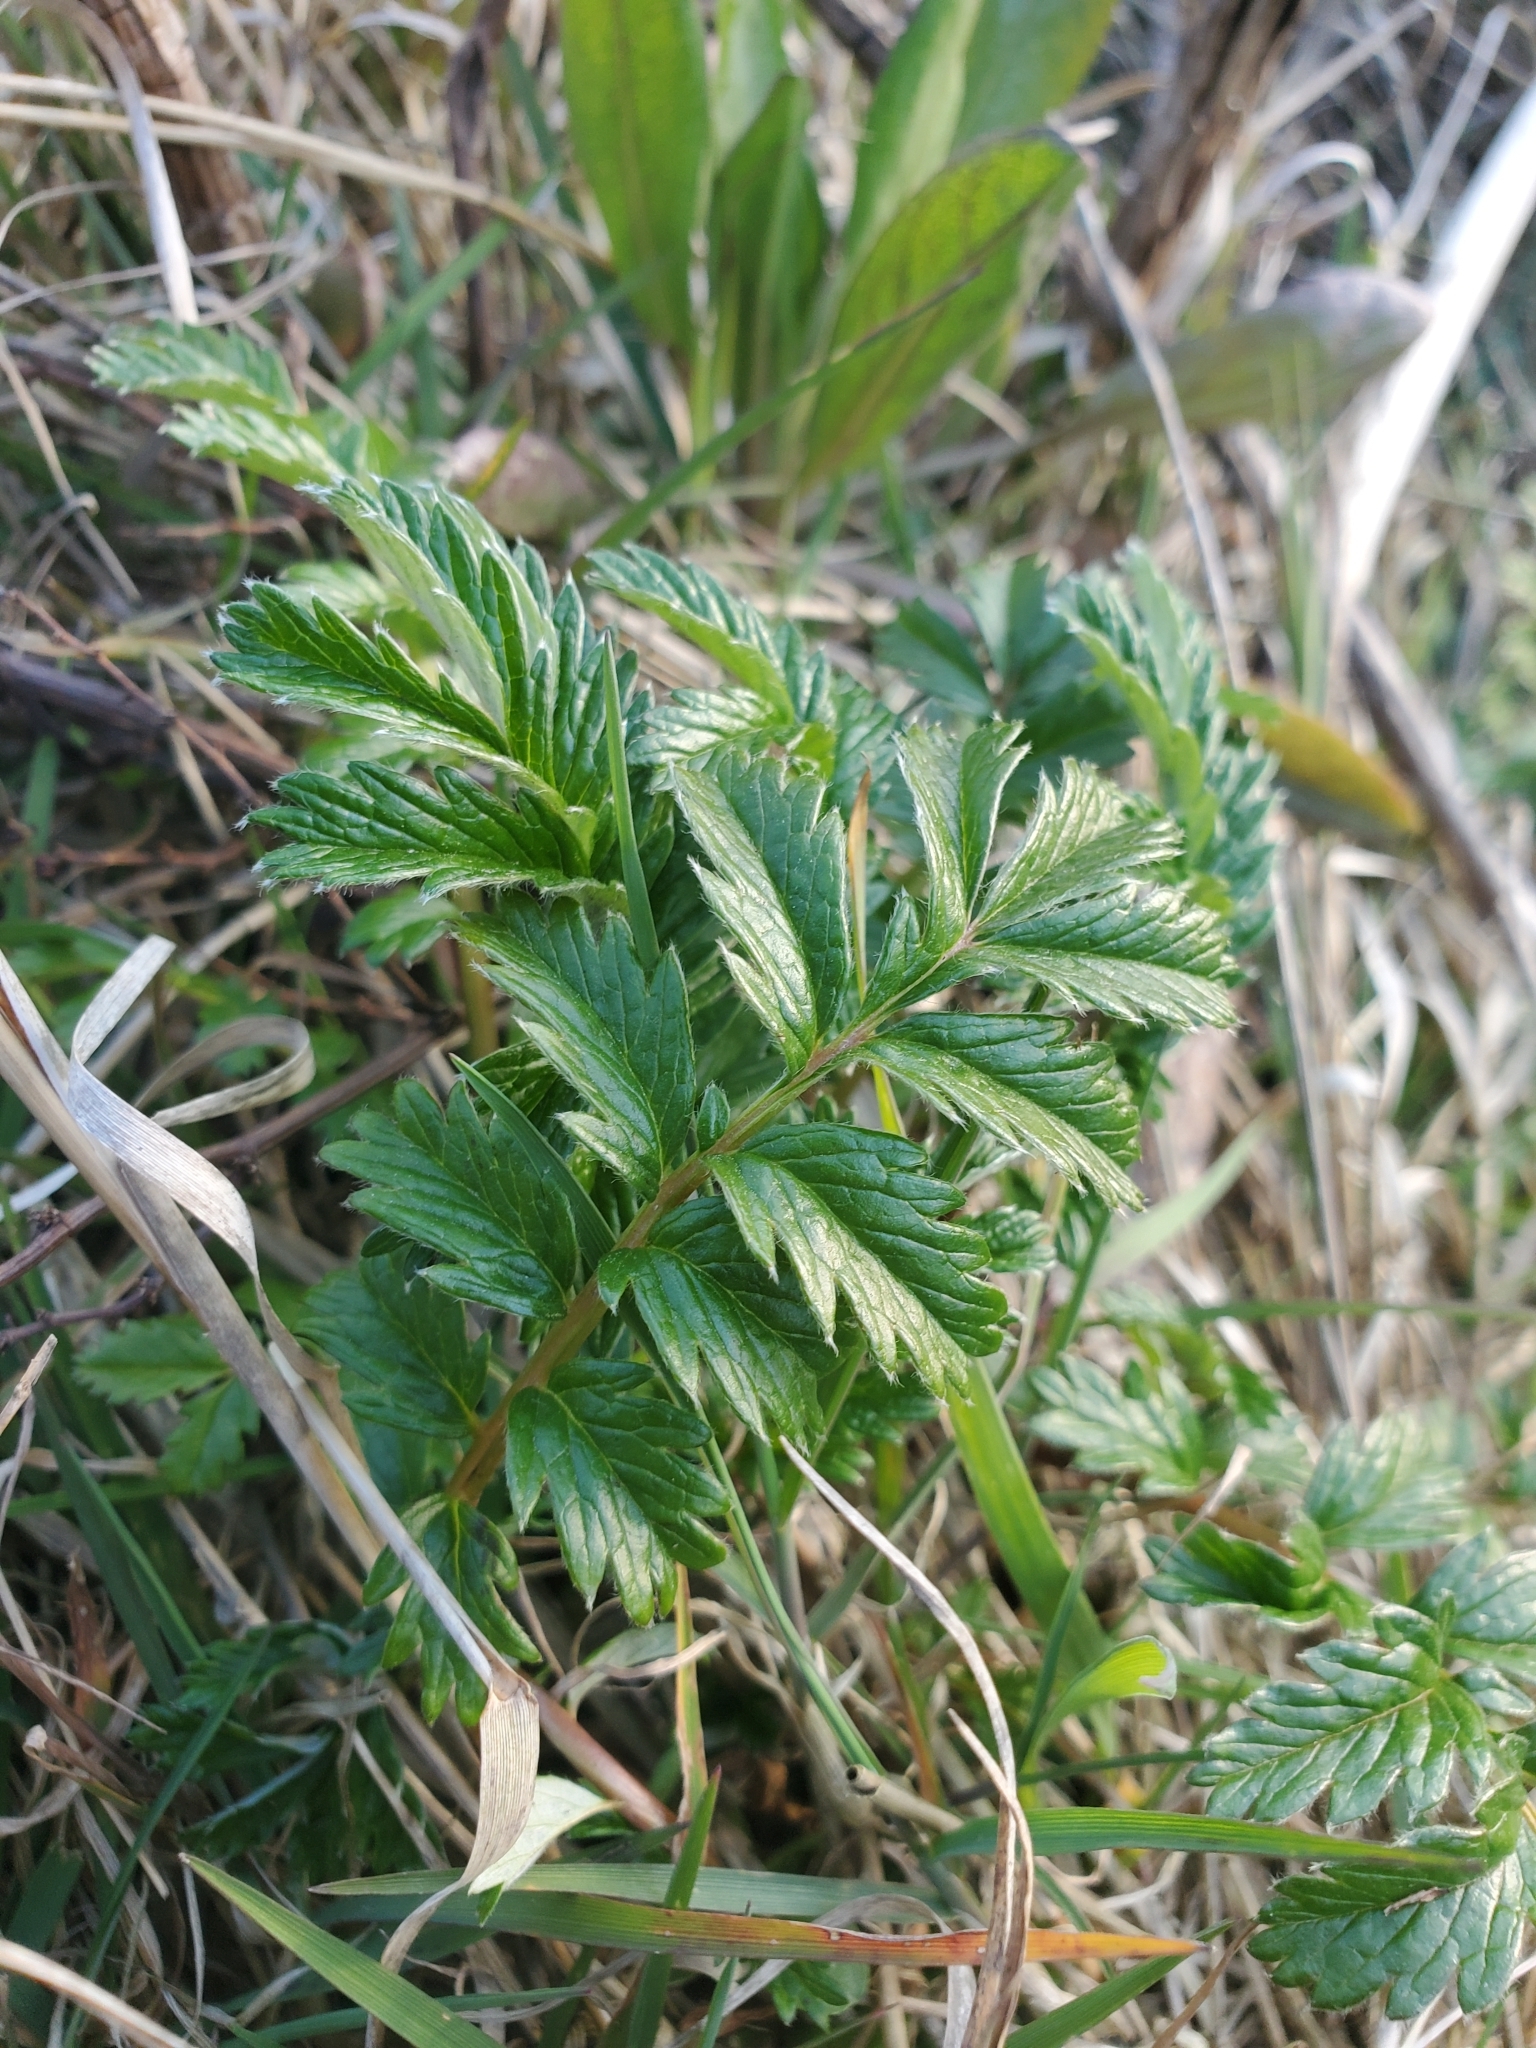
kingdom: Plantae
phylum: Tracheophyta
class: Magnoliopsida
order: Rosales
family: Rosaceae
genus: Argentina
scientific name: Argentina anserina
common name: Common silverweed
